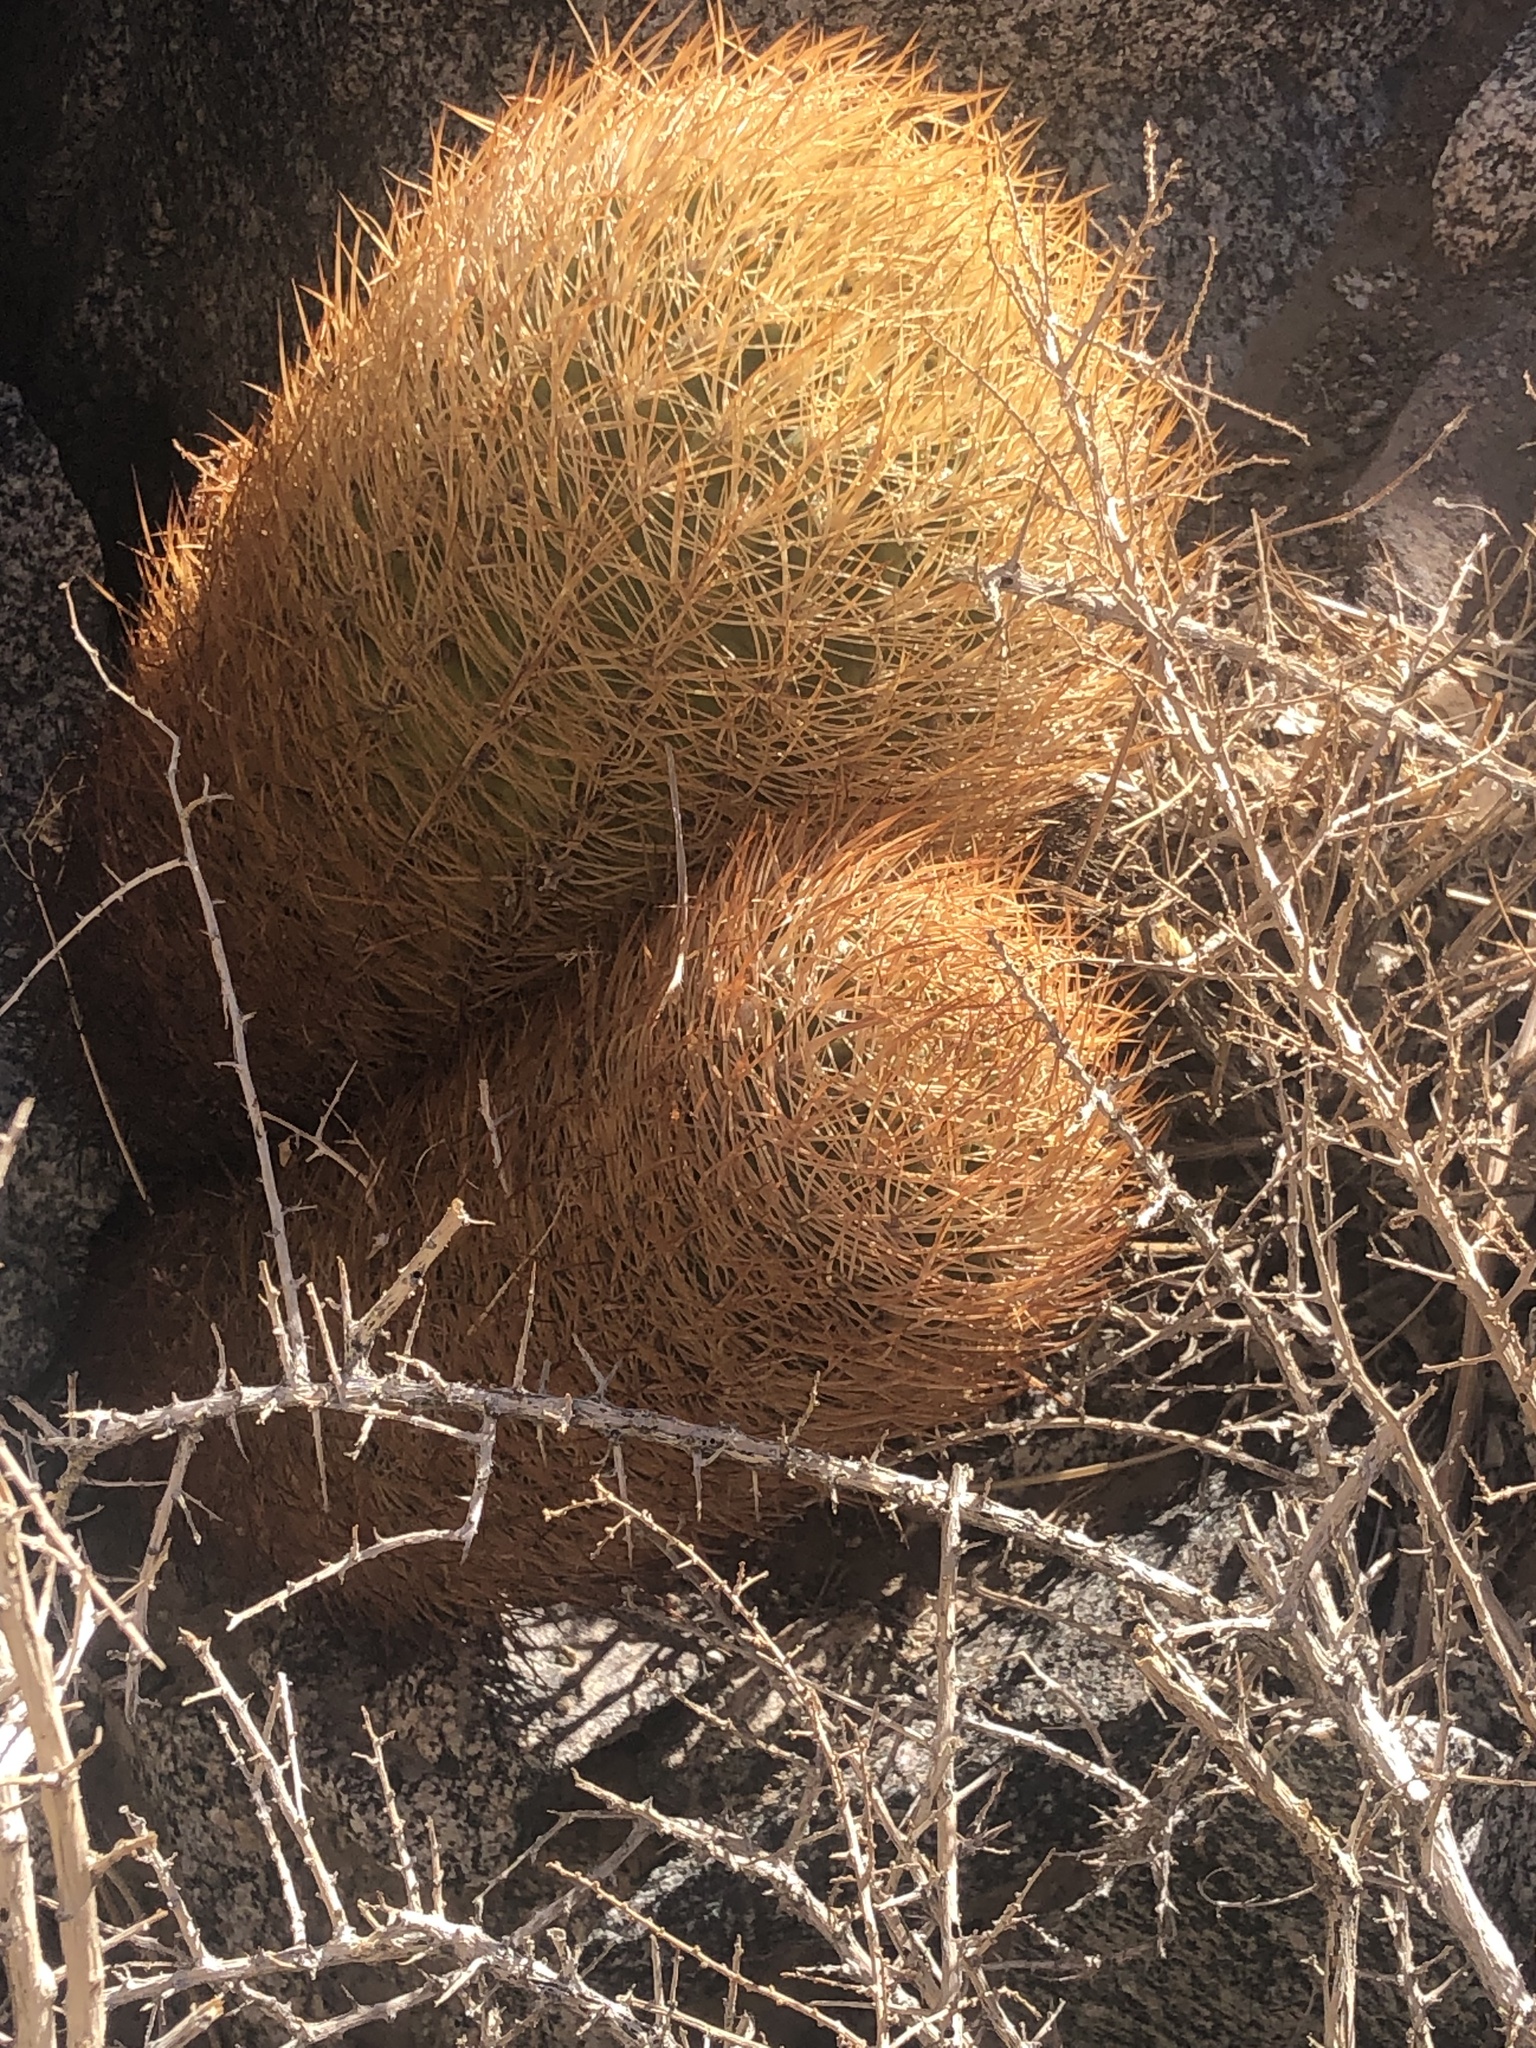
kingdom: Plantae
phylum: Tracheophyta
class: Magnoliopsida
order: Caryophyllales
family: Cactaceae
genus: Eriosyce
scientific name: Eriosyce eriosyzoides
